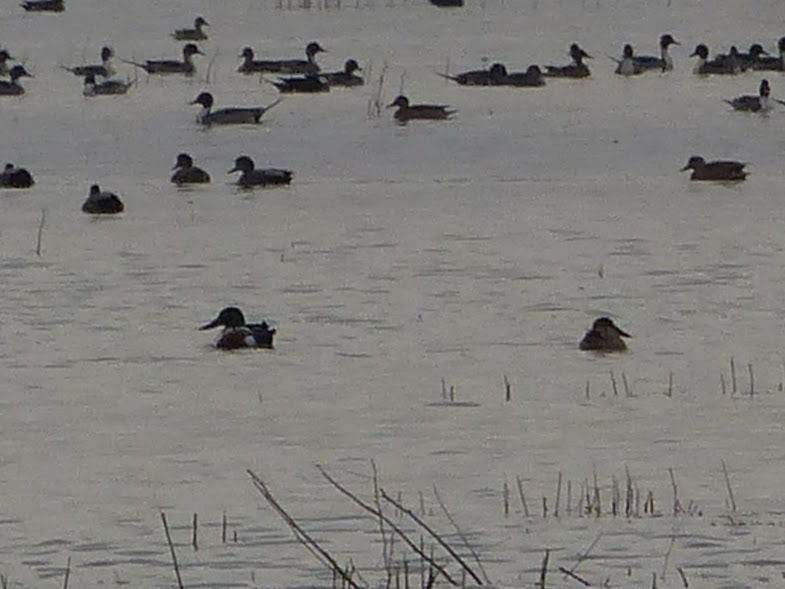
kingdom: Animalia
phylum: Chordata
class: Aves
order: Anseriformes
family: Anatidae
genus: Spatula
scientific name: Spatula clypeata
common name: Northern shoveler
